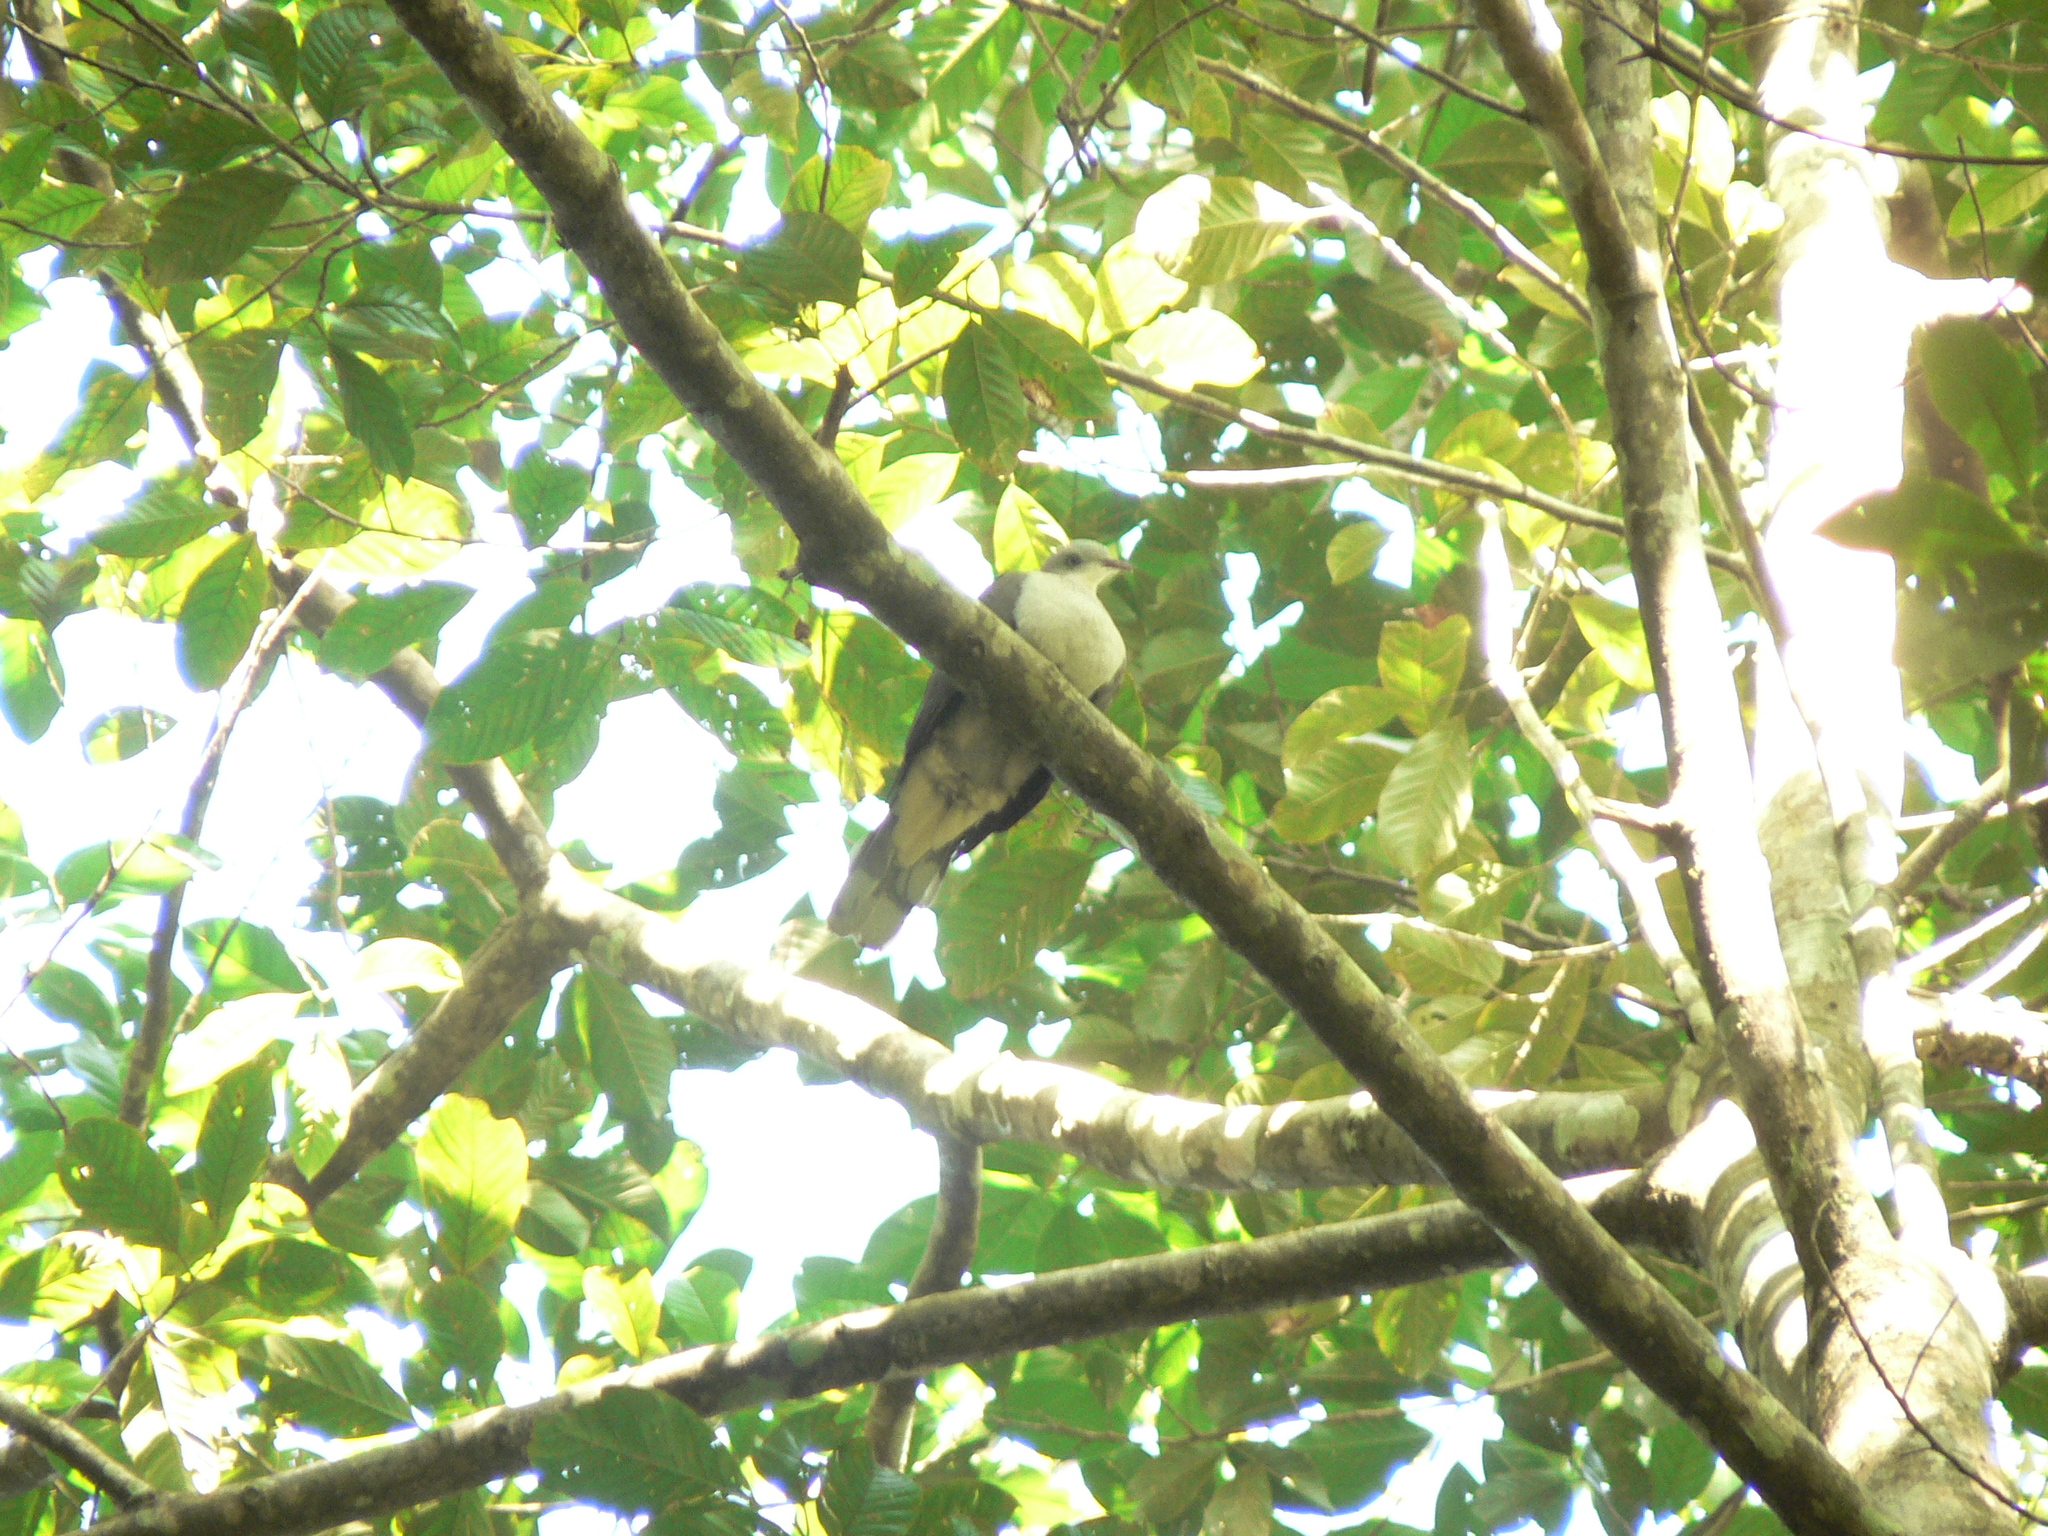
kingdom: Animalia
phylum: Chordata
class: Aves
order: Columbiformes
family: Columbidae
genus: Ducula
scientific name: Ducula badia
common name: Mountain imperial pigeon
